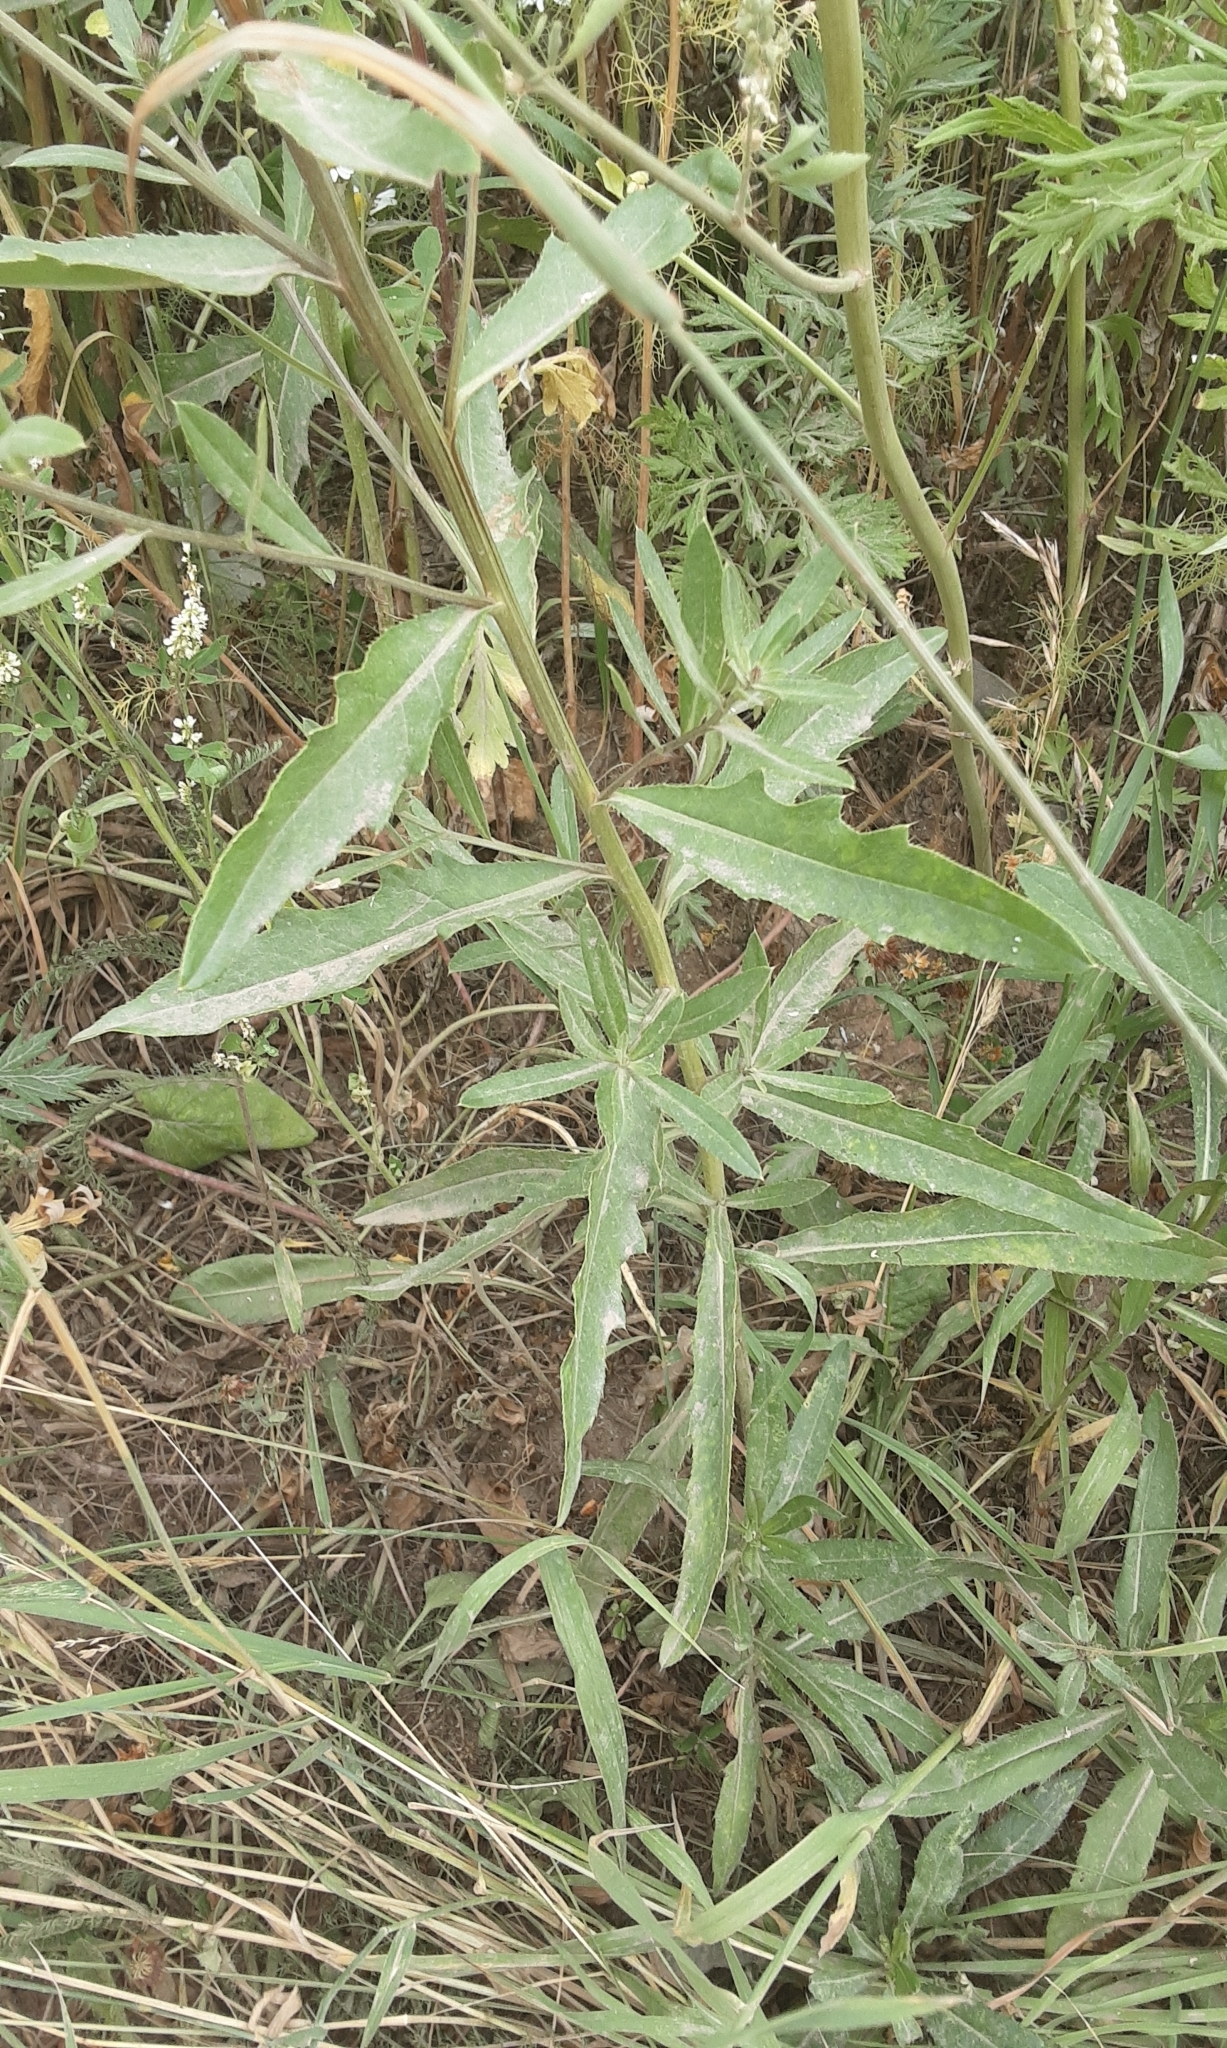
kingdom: Plantae
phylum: Tracheophyta
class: Magnoliopsida
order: Asterales
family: Asteraceae
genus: Cirsium
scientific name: Cirsium arvense
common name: Creeping thistle
